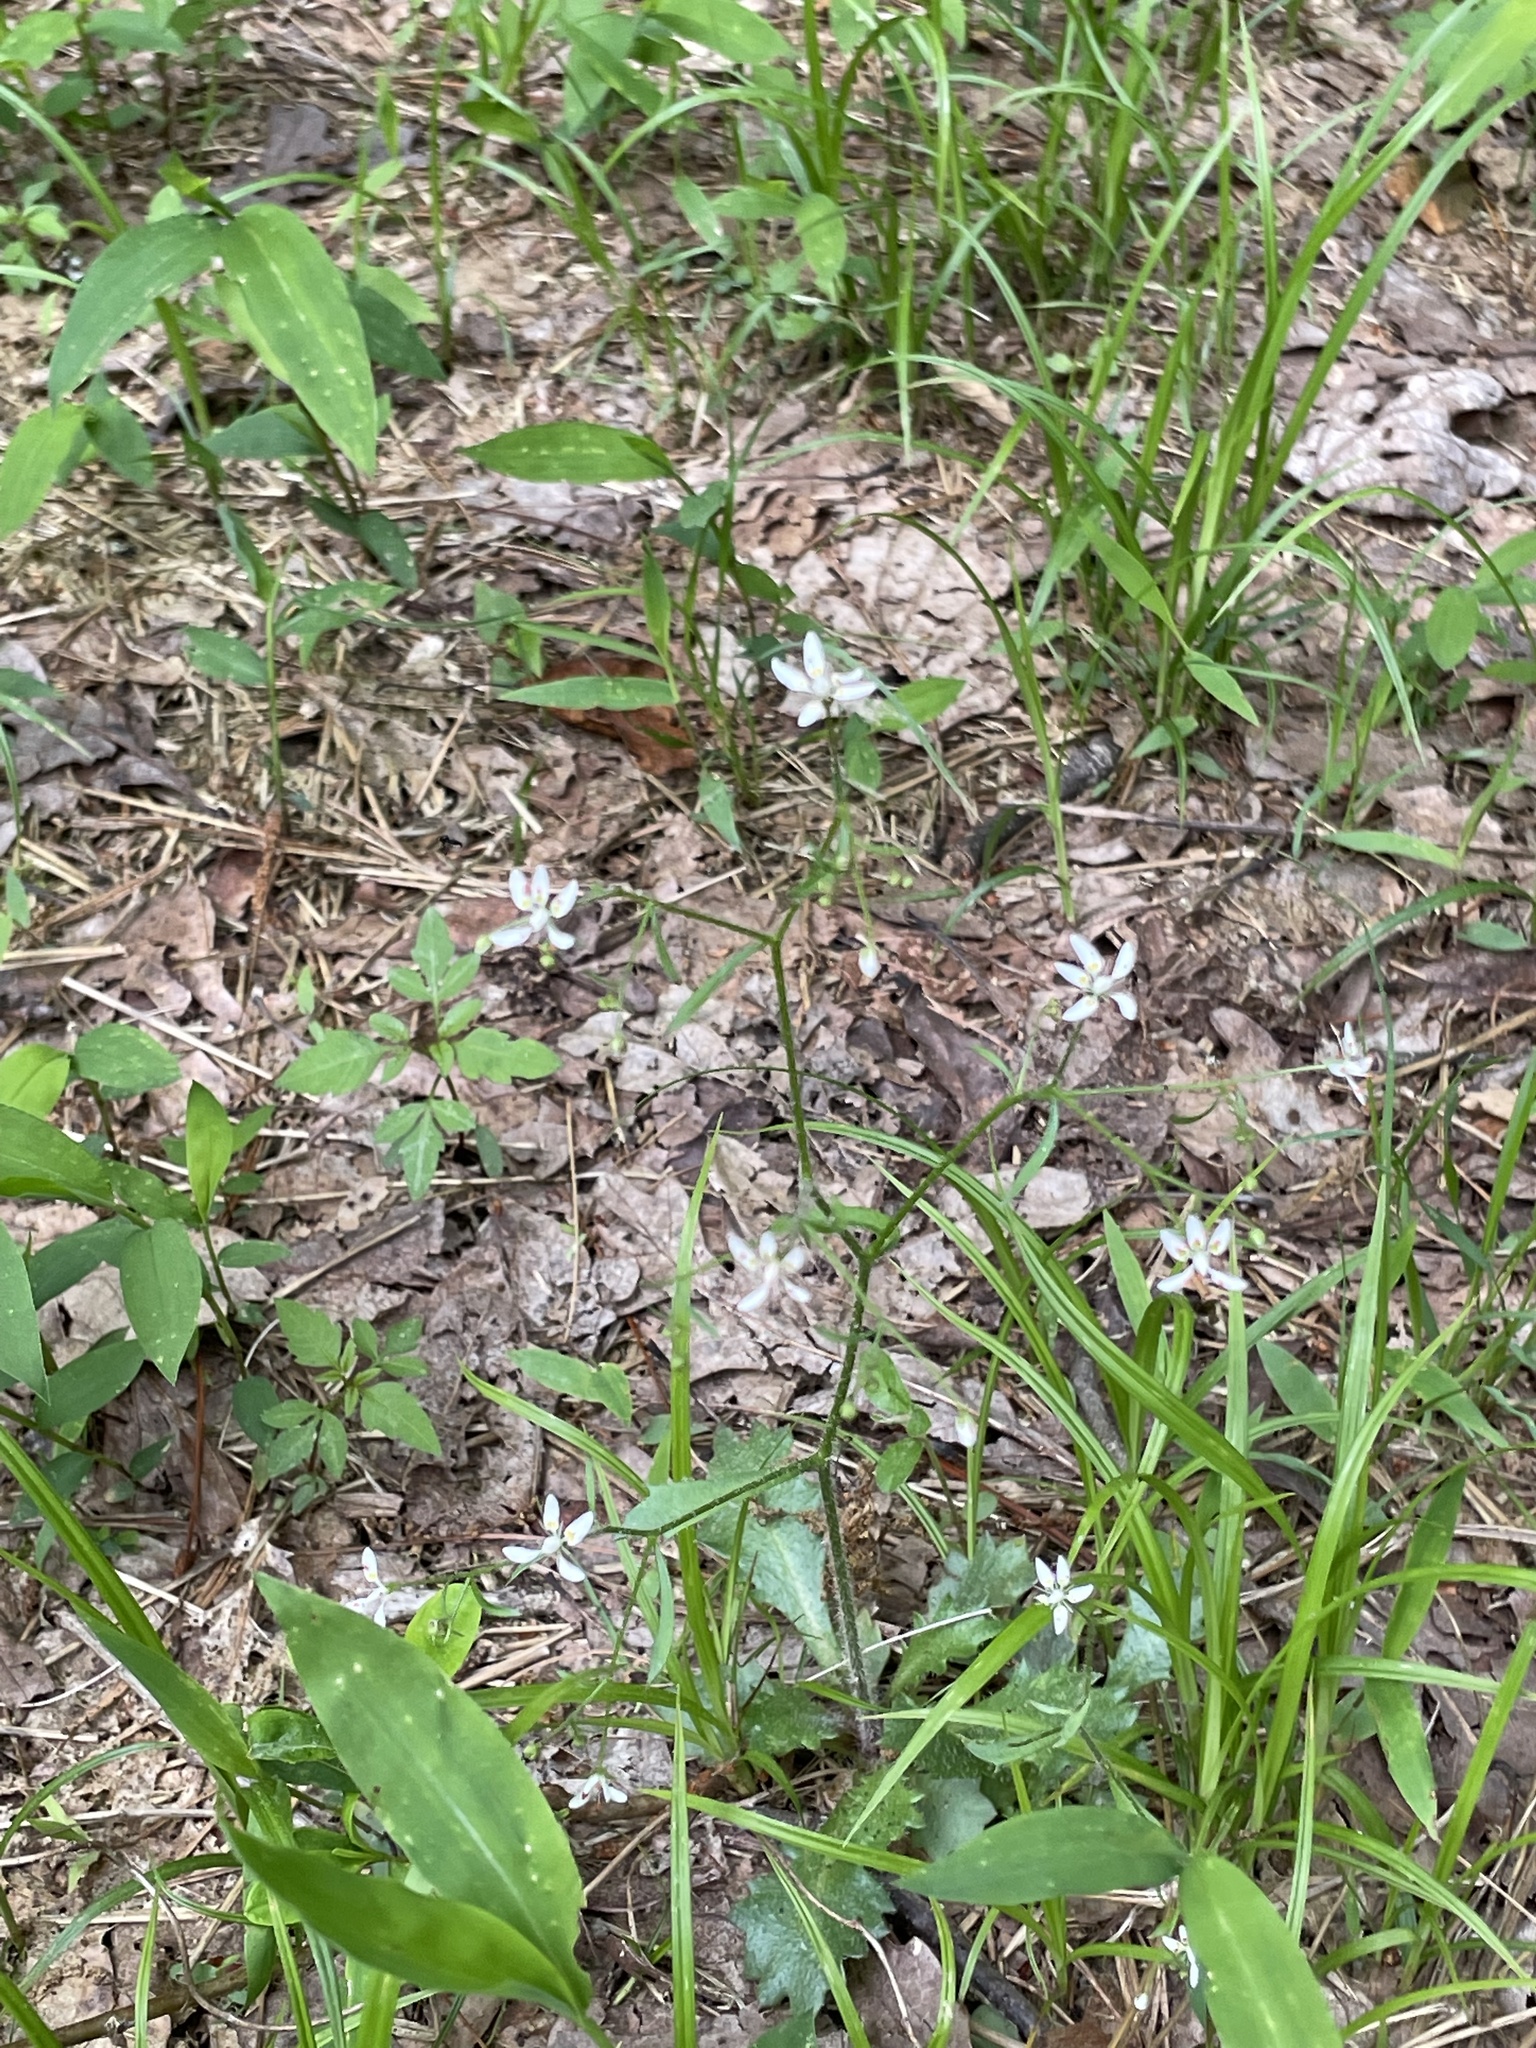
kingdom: Plantae
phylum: Tracheophyta
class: Magnoliopsida
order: Saxifragales
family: Saxifragaceae
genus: Micranthes
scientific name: Micranthes petiolaris
